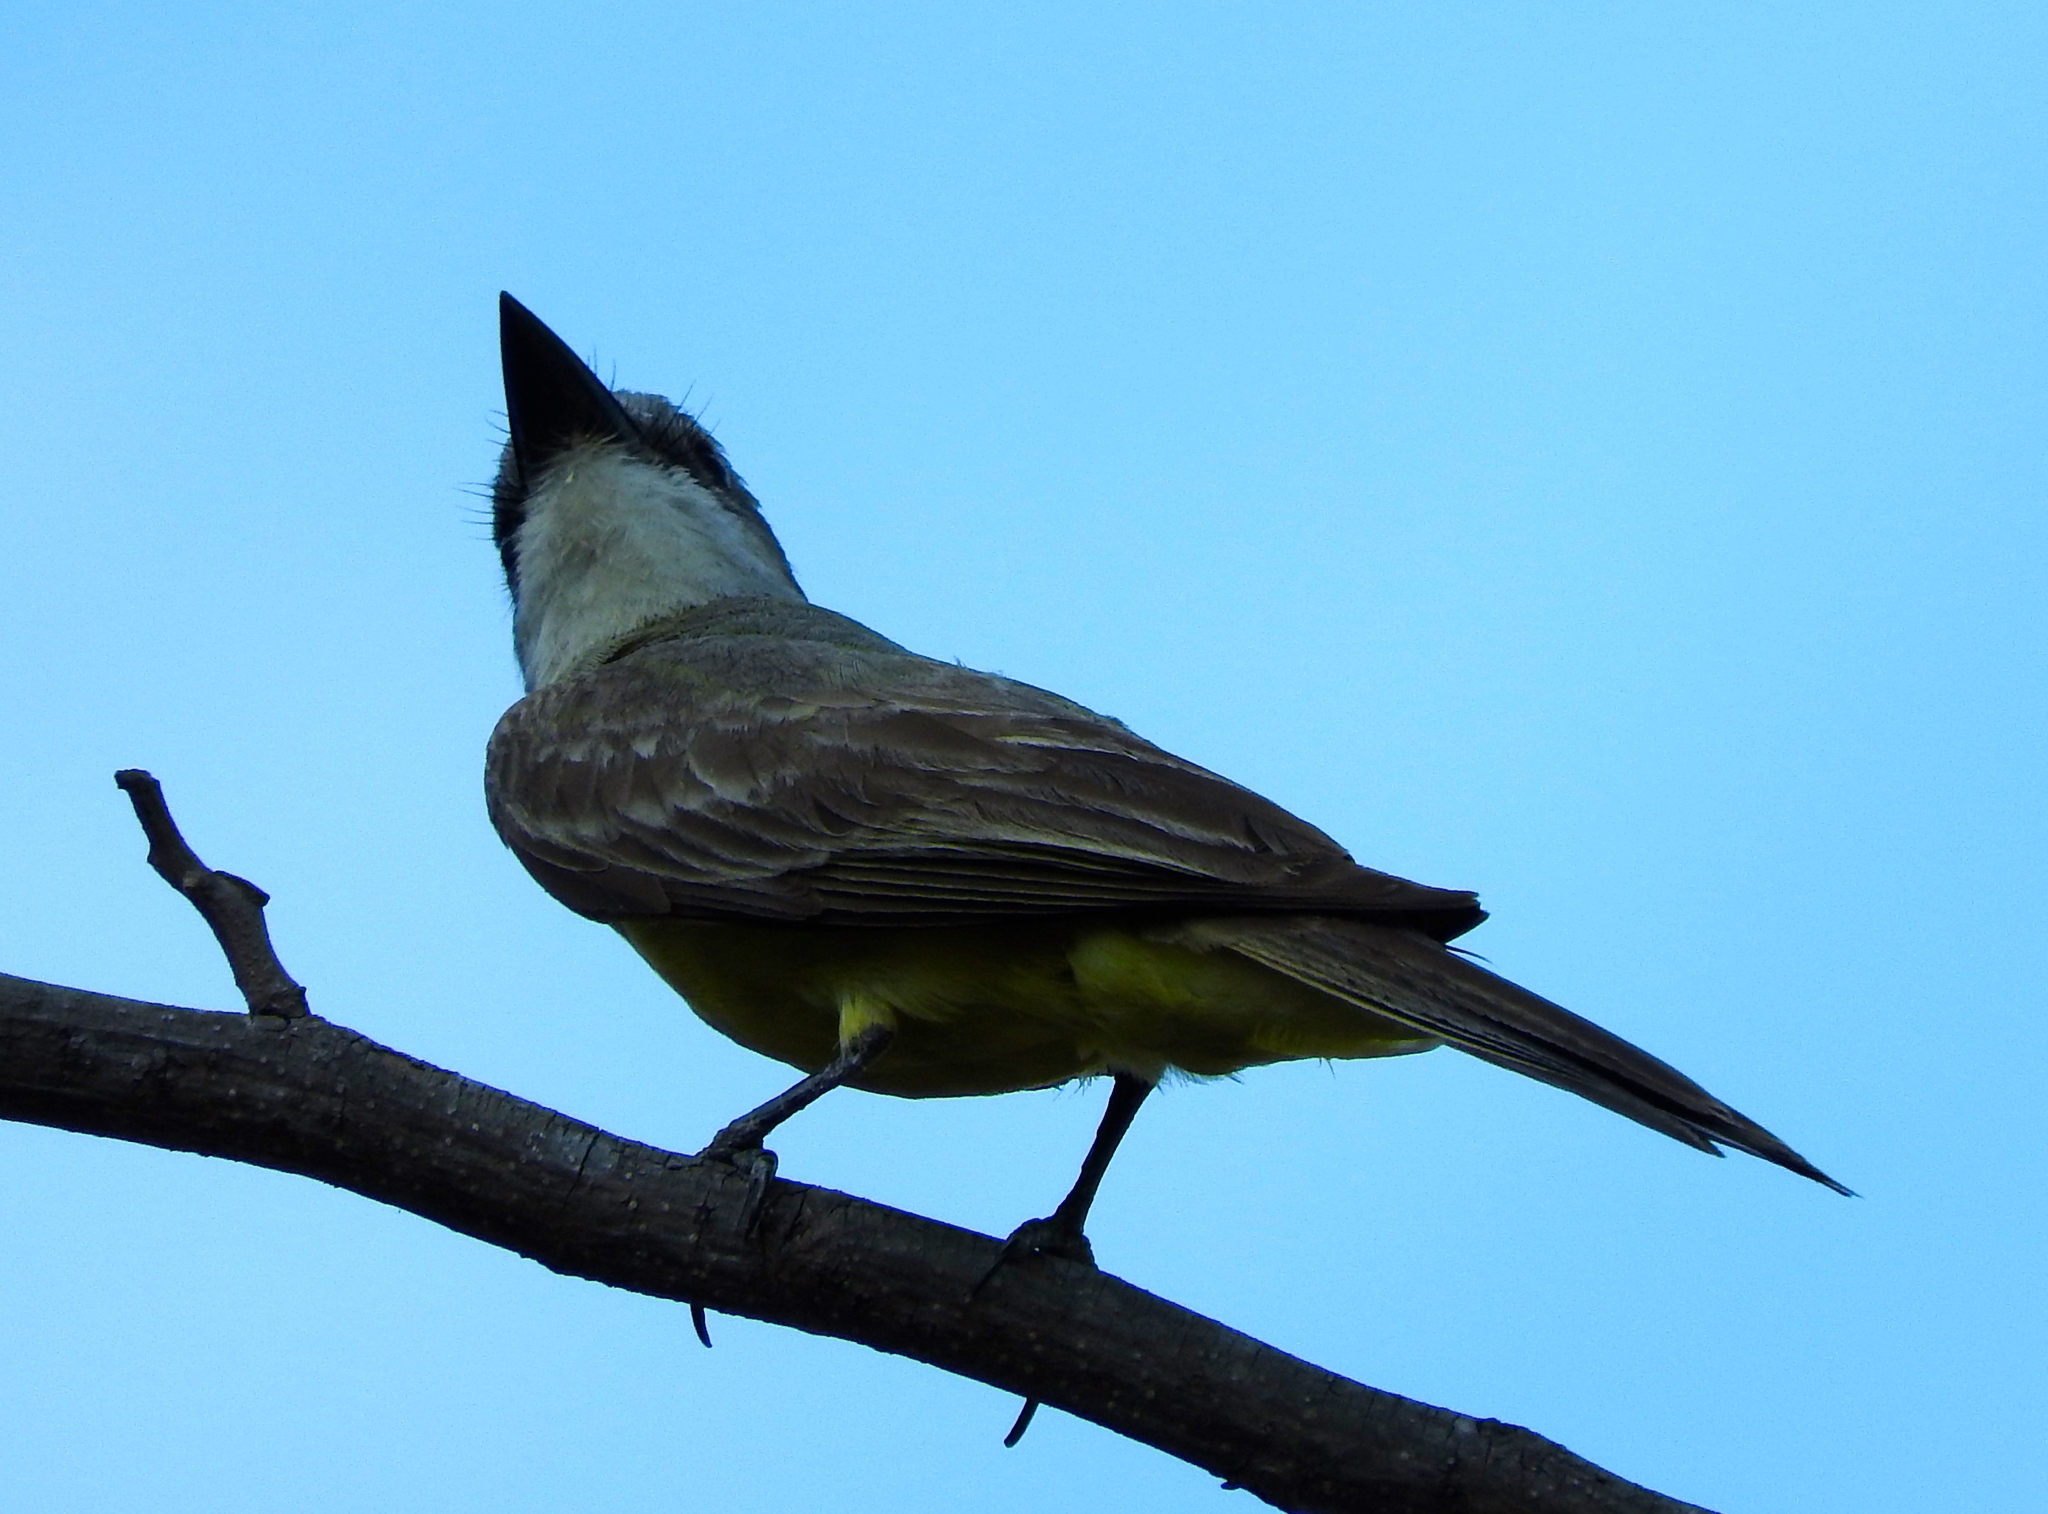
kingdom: Animalia
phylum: Chordata
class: Aves
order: Passeriformes
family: Tyrannidae
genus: Tyrannus
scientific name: Tyrannus melancholicus
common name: Tropical kingbird
